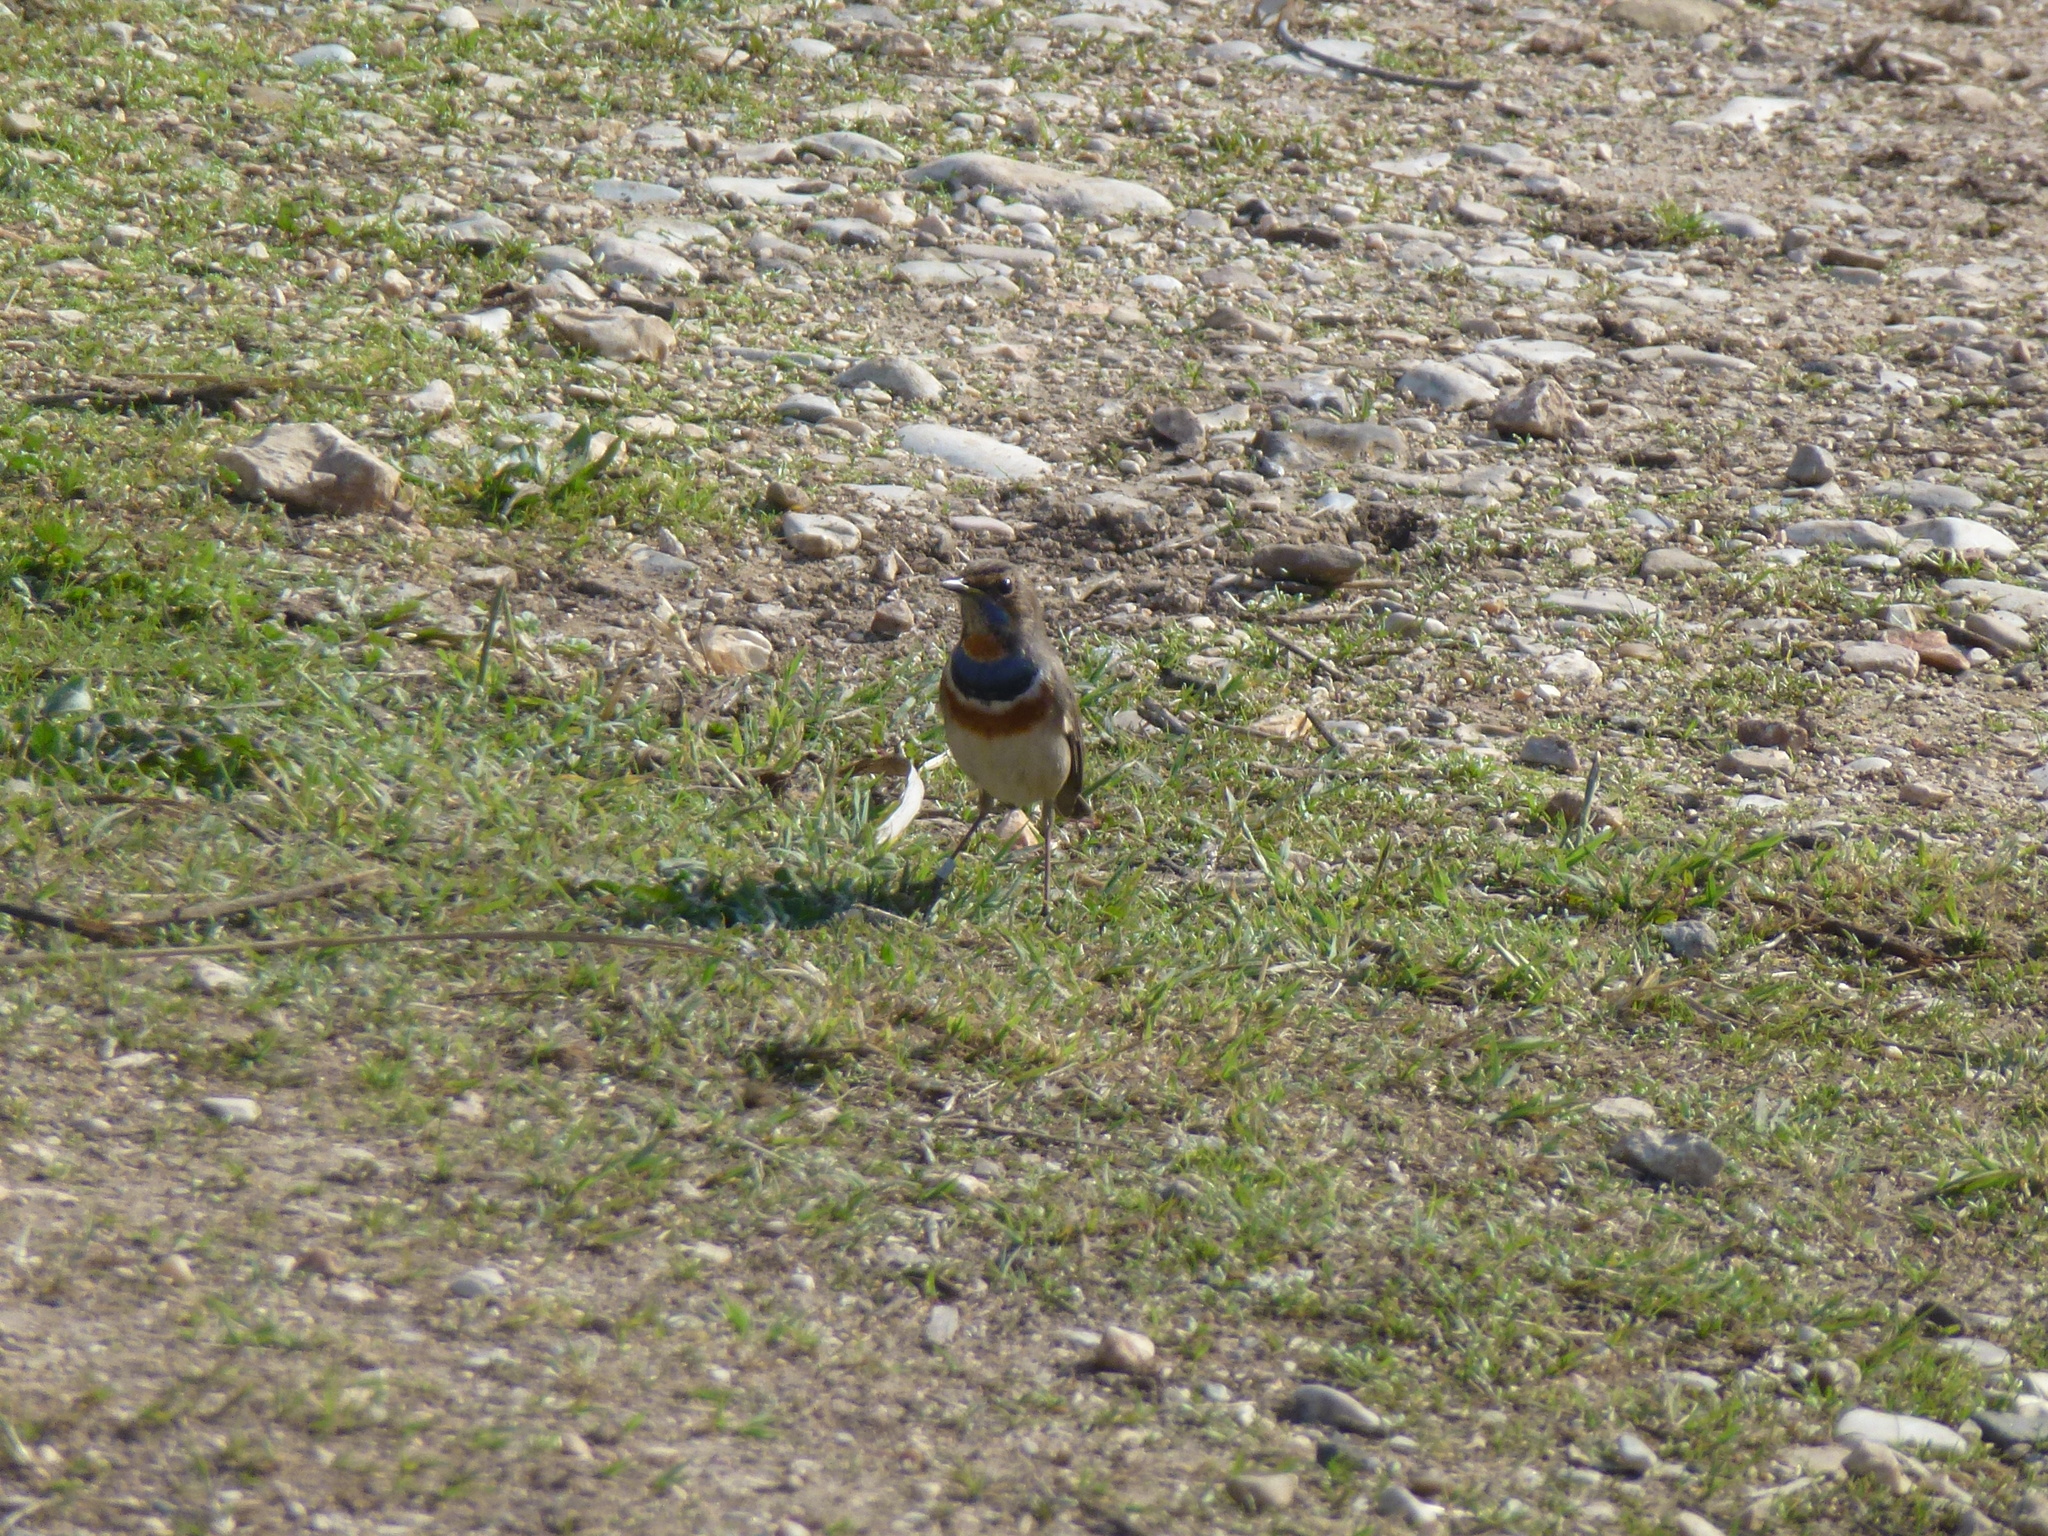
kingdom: Animalia
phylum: Chordata
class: Aves
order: Passeriformes
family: Muscicapidae
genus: Luscinia
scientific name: Luscinia svecica
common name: Bluethroat
